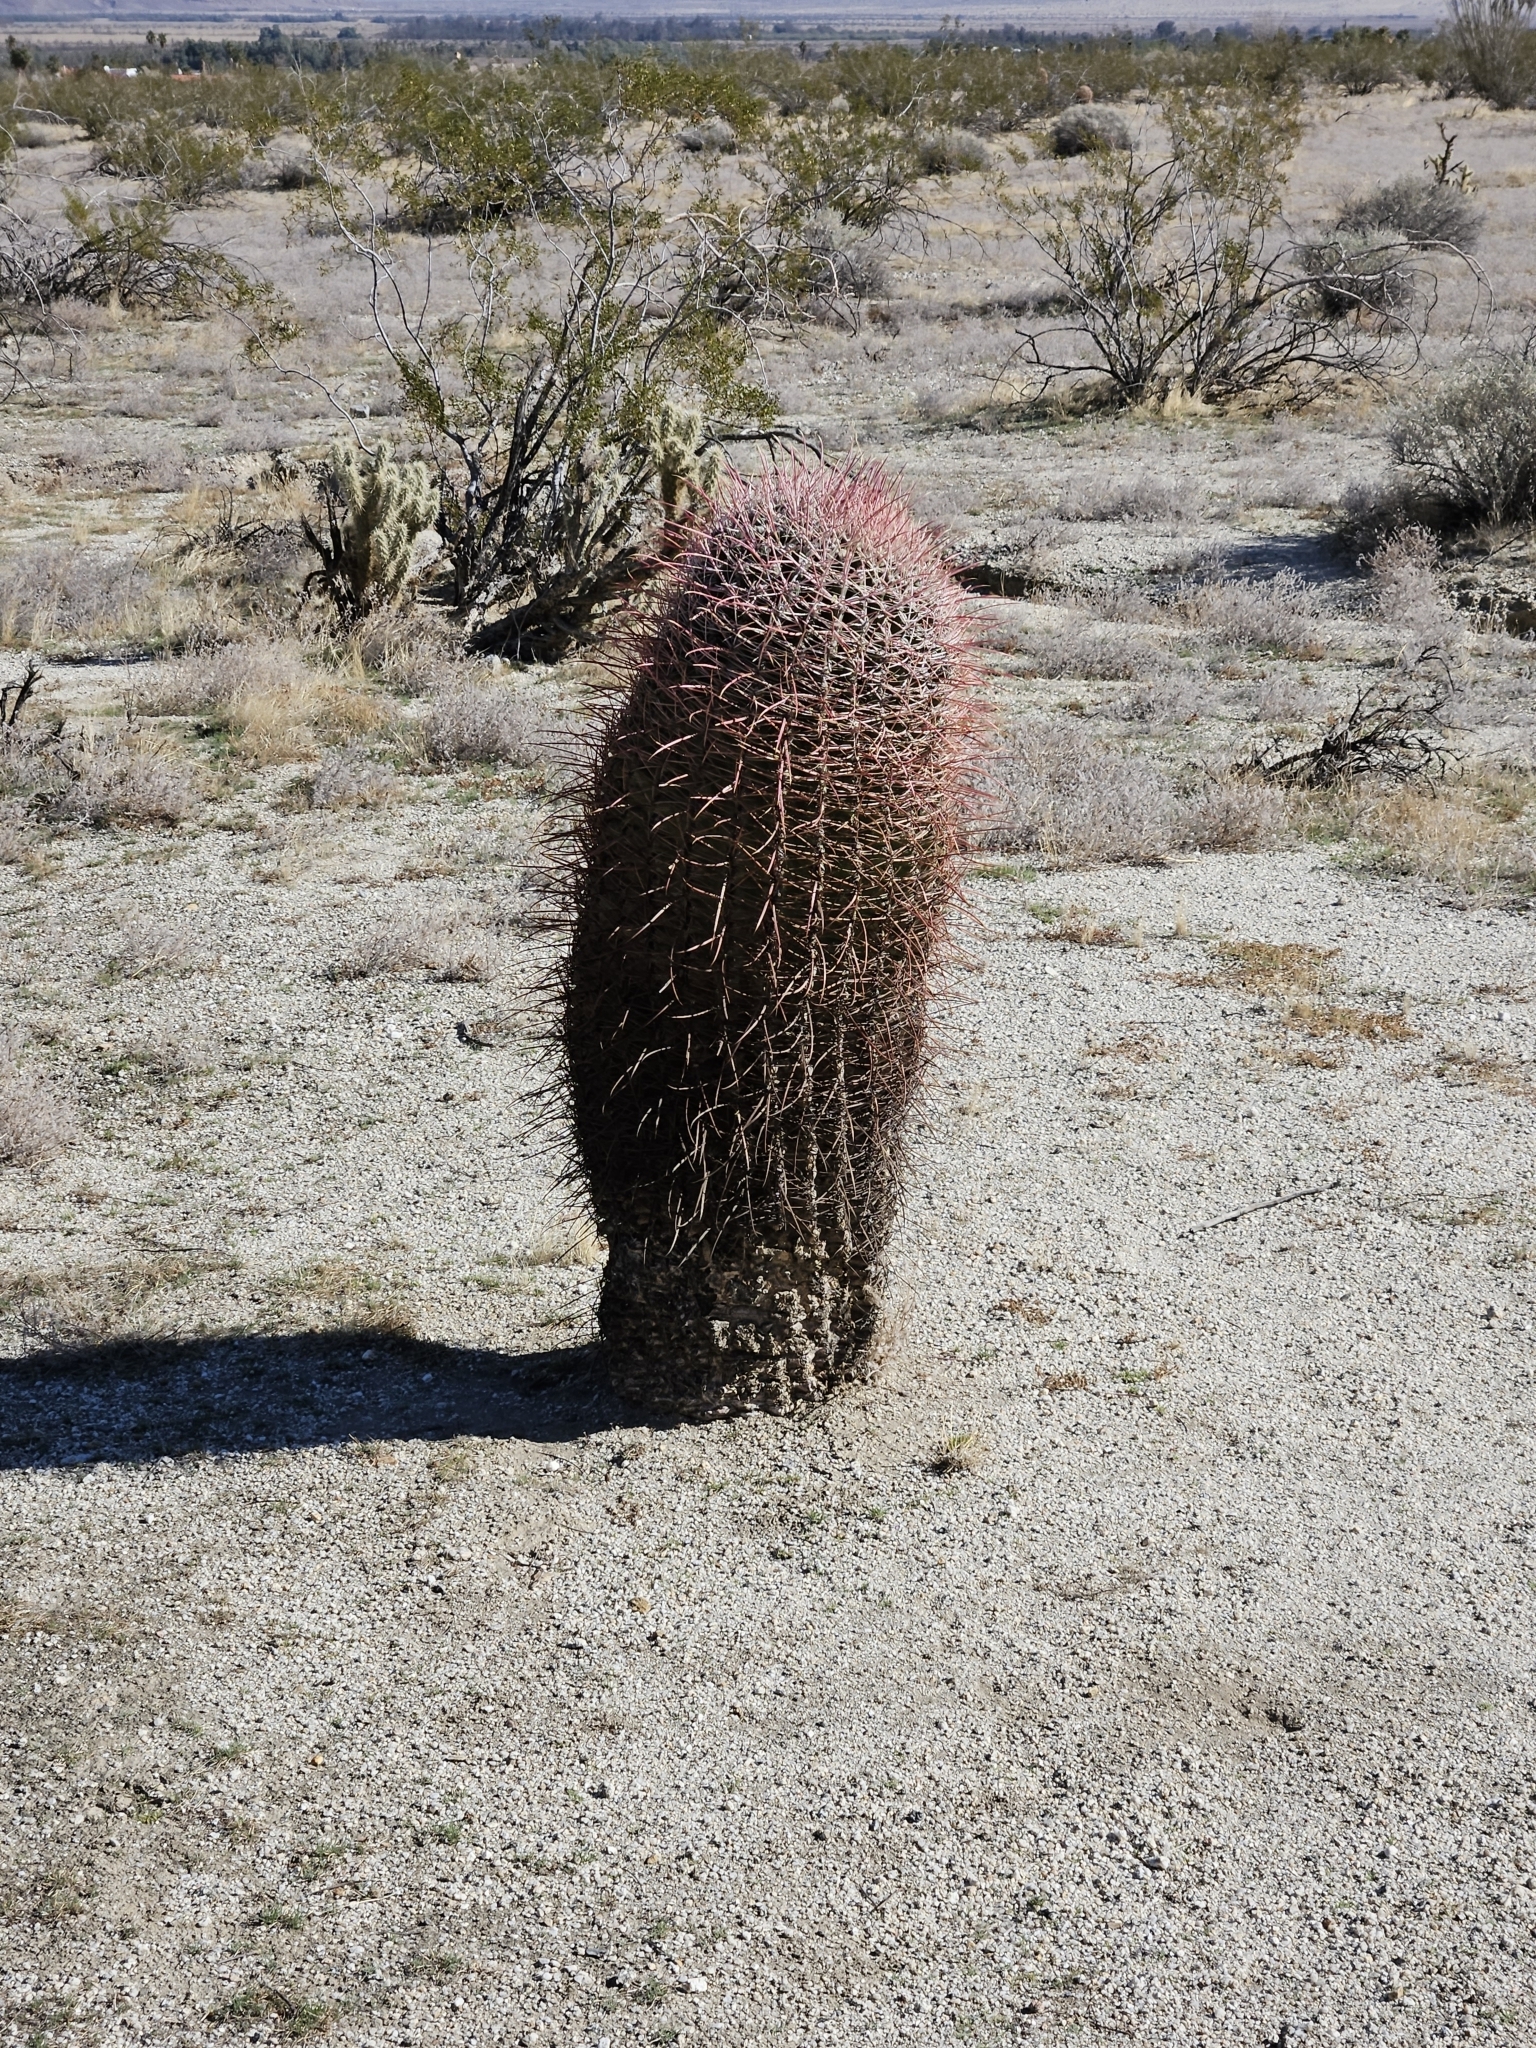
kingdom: Plantae
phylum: Tracheophyta
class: Magnoliopsida
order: Caryophyllales
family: Cactaceae
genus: Ferocactus
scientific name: Ferocactus cylindraceus
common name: California barrel cactus
